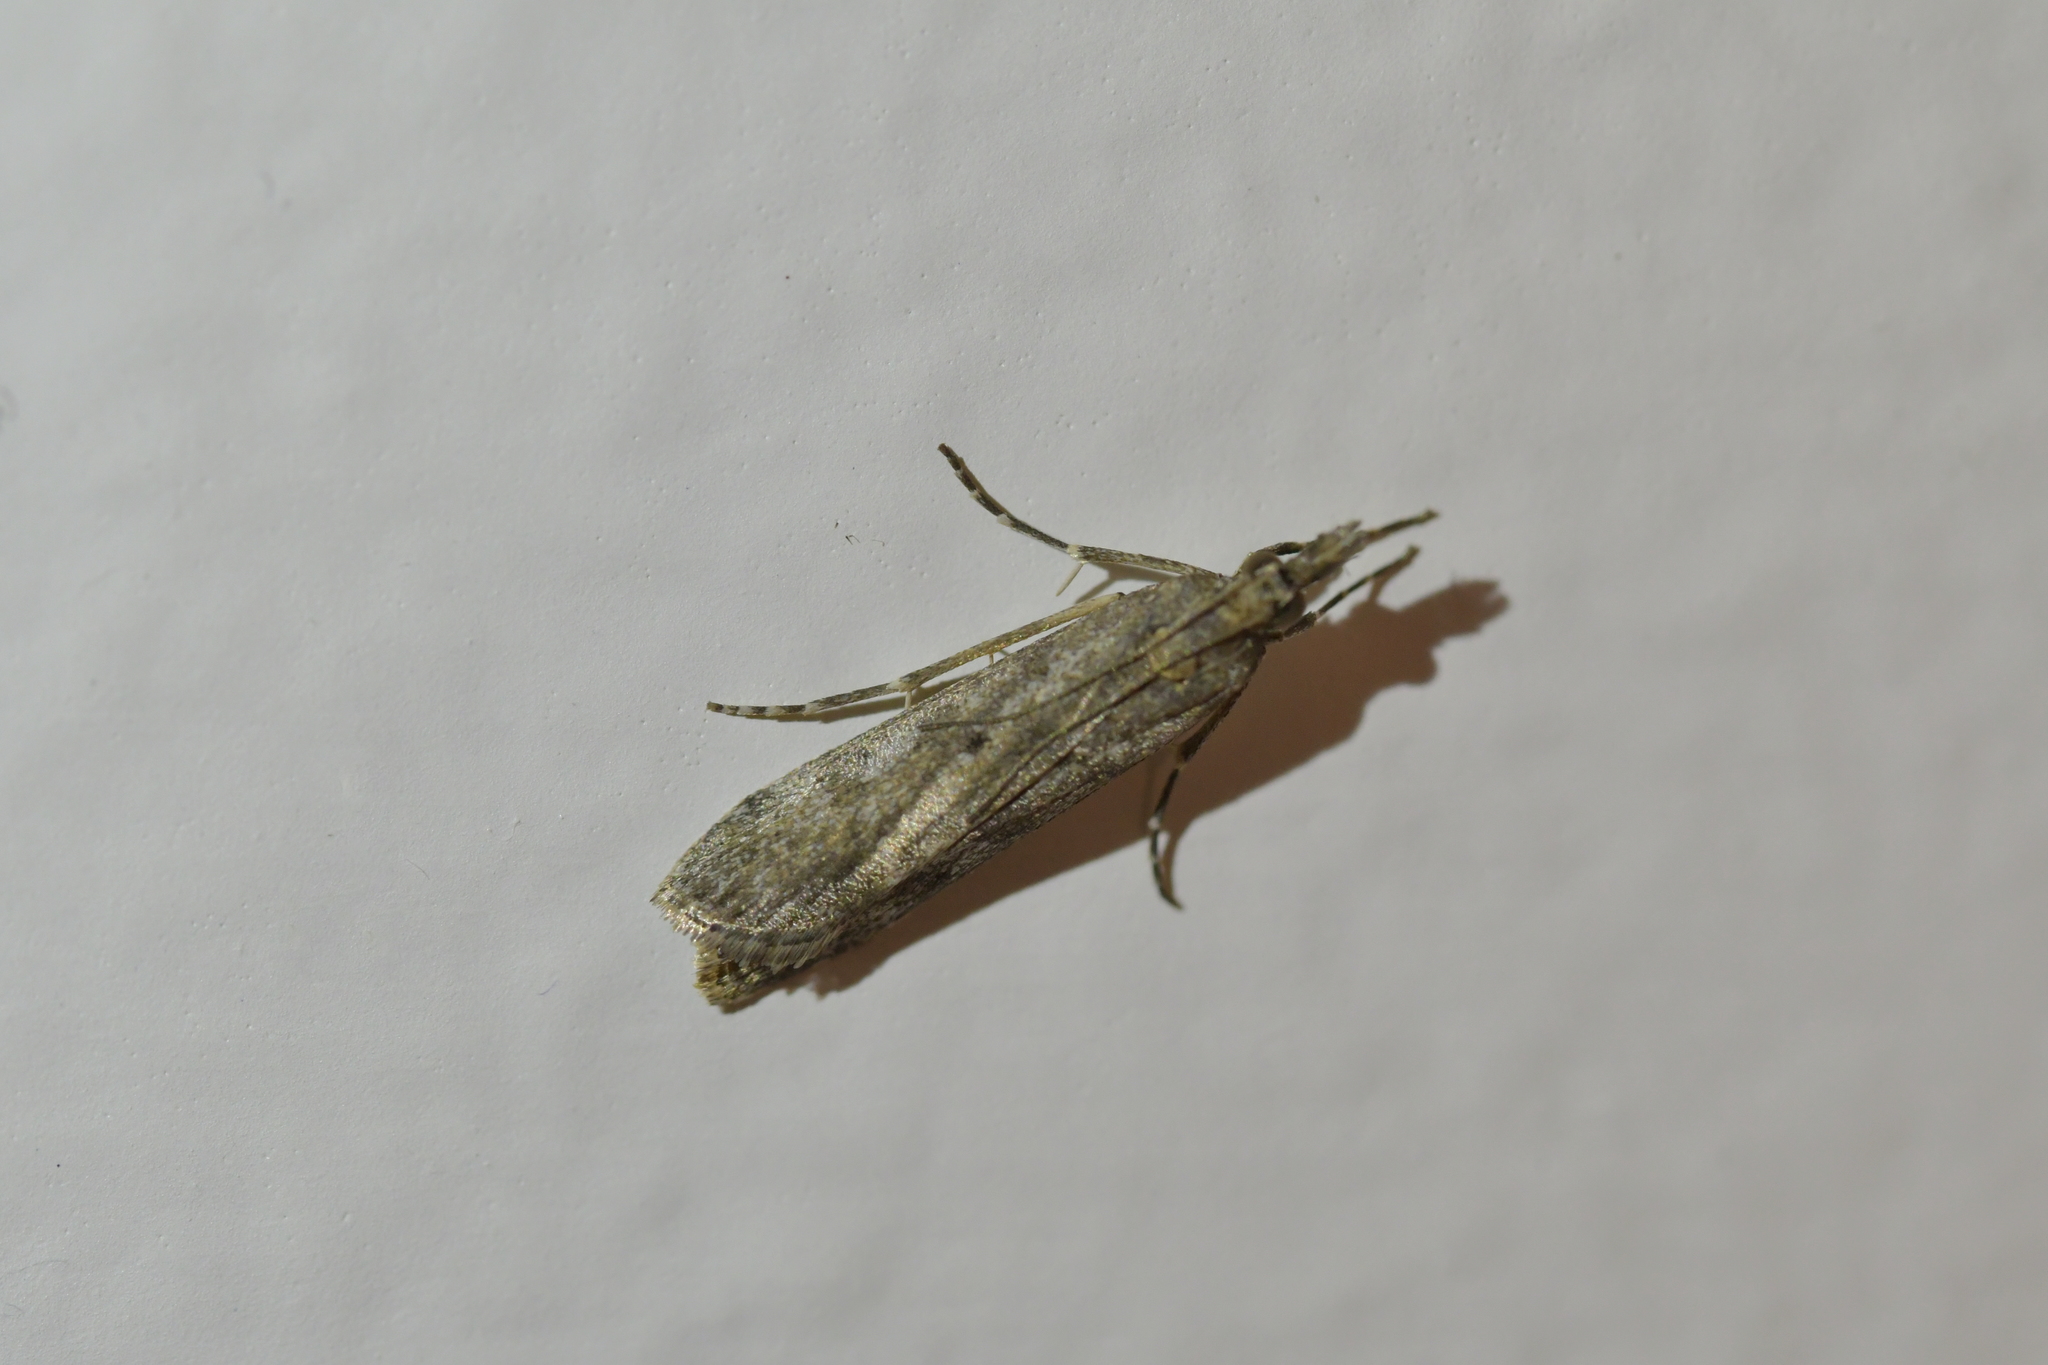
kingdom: Animalia
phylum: Arthropoda
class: Insecta
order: Lepidoptera
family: Crambidae
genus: Eudonia
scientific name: Eudonia leptalea
